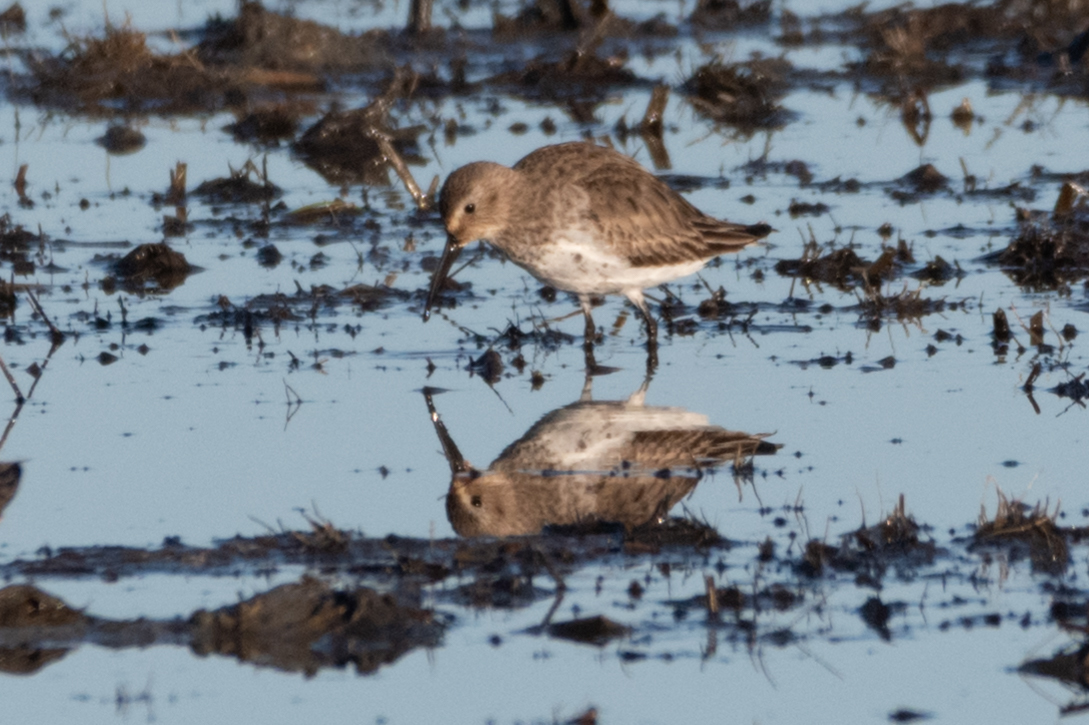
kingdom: Animalia
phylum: Chordata
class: Aves
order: Charadriiformes
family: Scolopacidae
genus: Calidris
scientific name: Calidris alpina
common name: Dunlin
